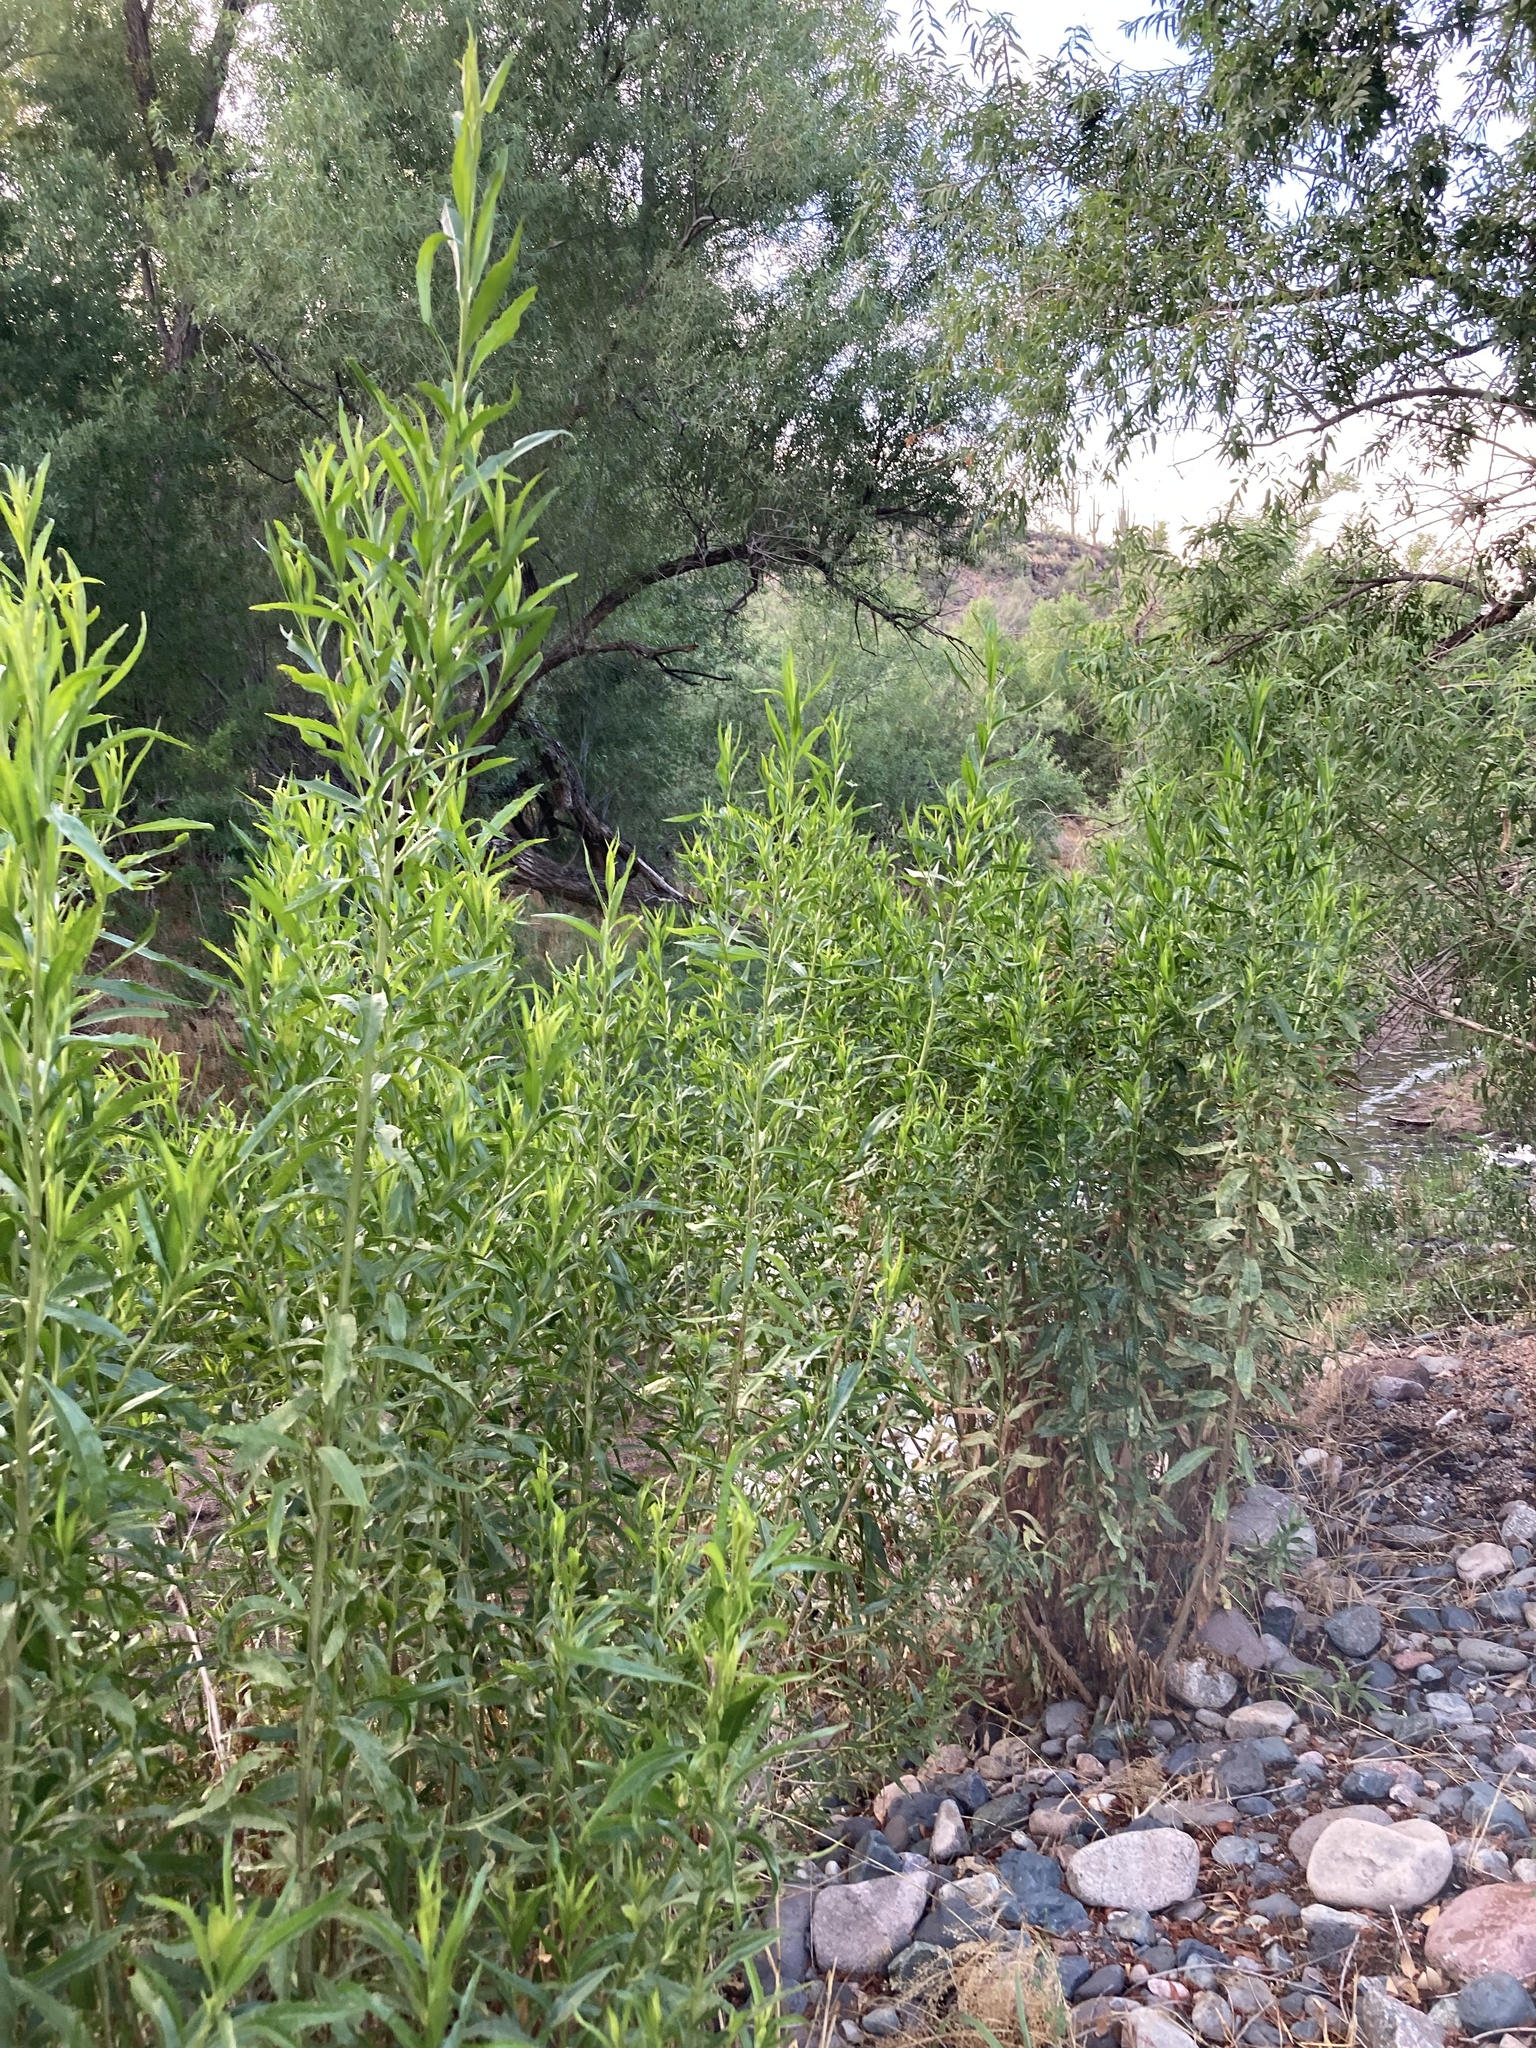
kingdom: Plantae
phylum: Tracheophyta
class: Magnoliopsida
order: Asterales
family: Asteraceae
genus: Baccharis
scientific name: Baccharis salicifolia
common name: Sticky baccharis
